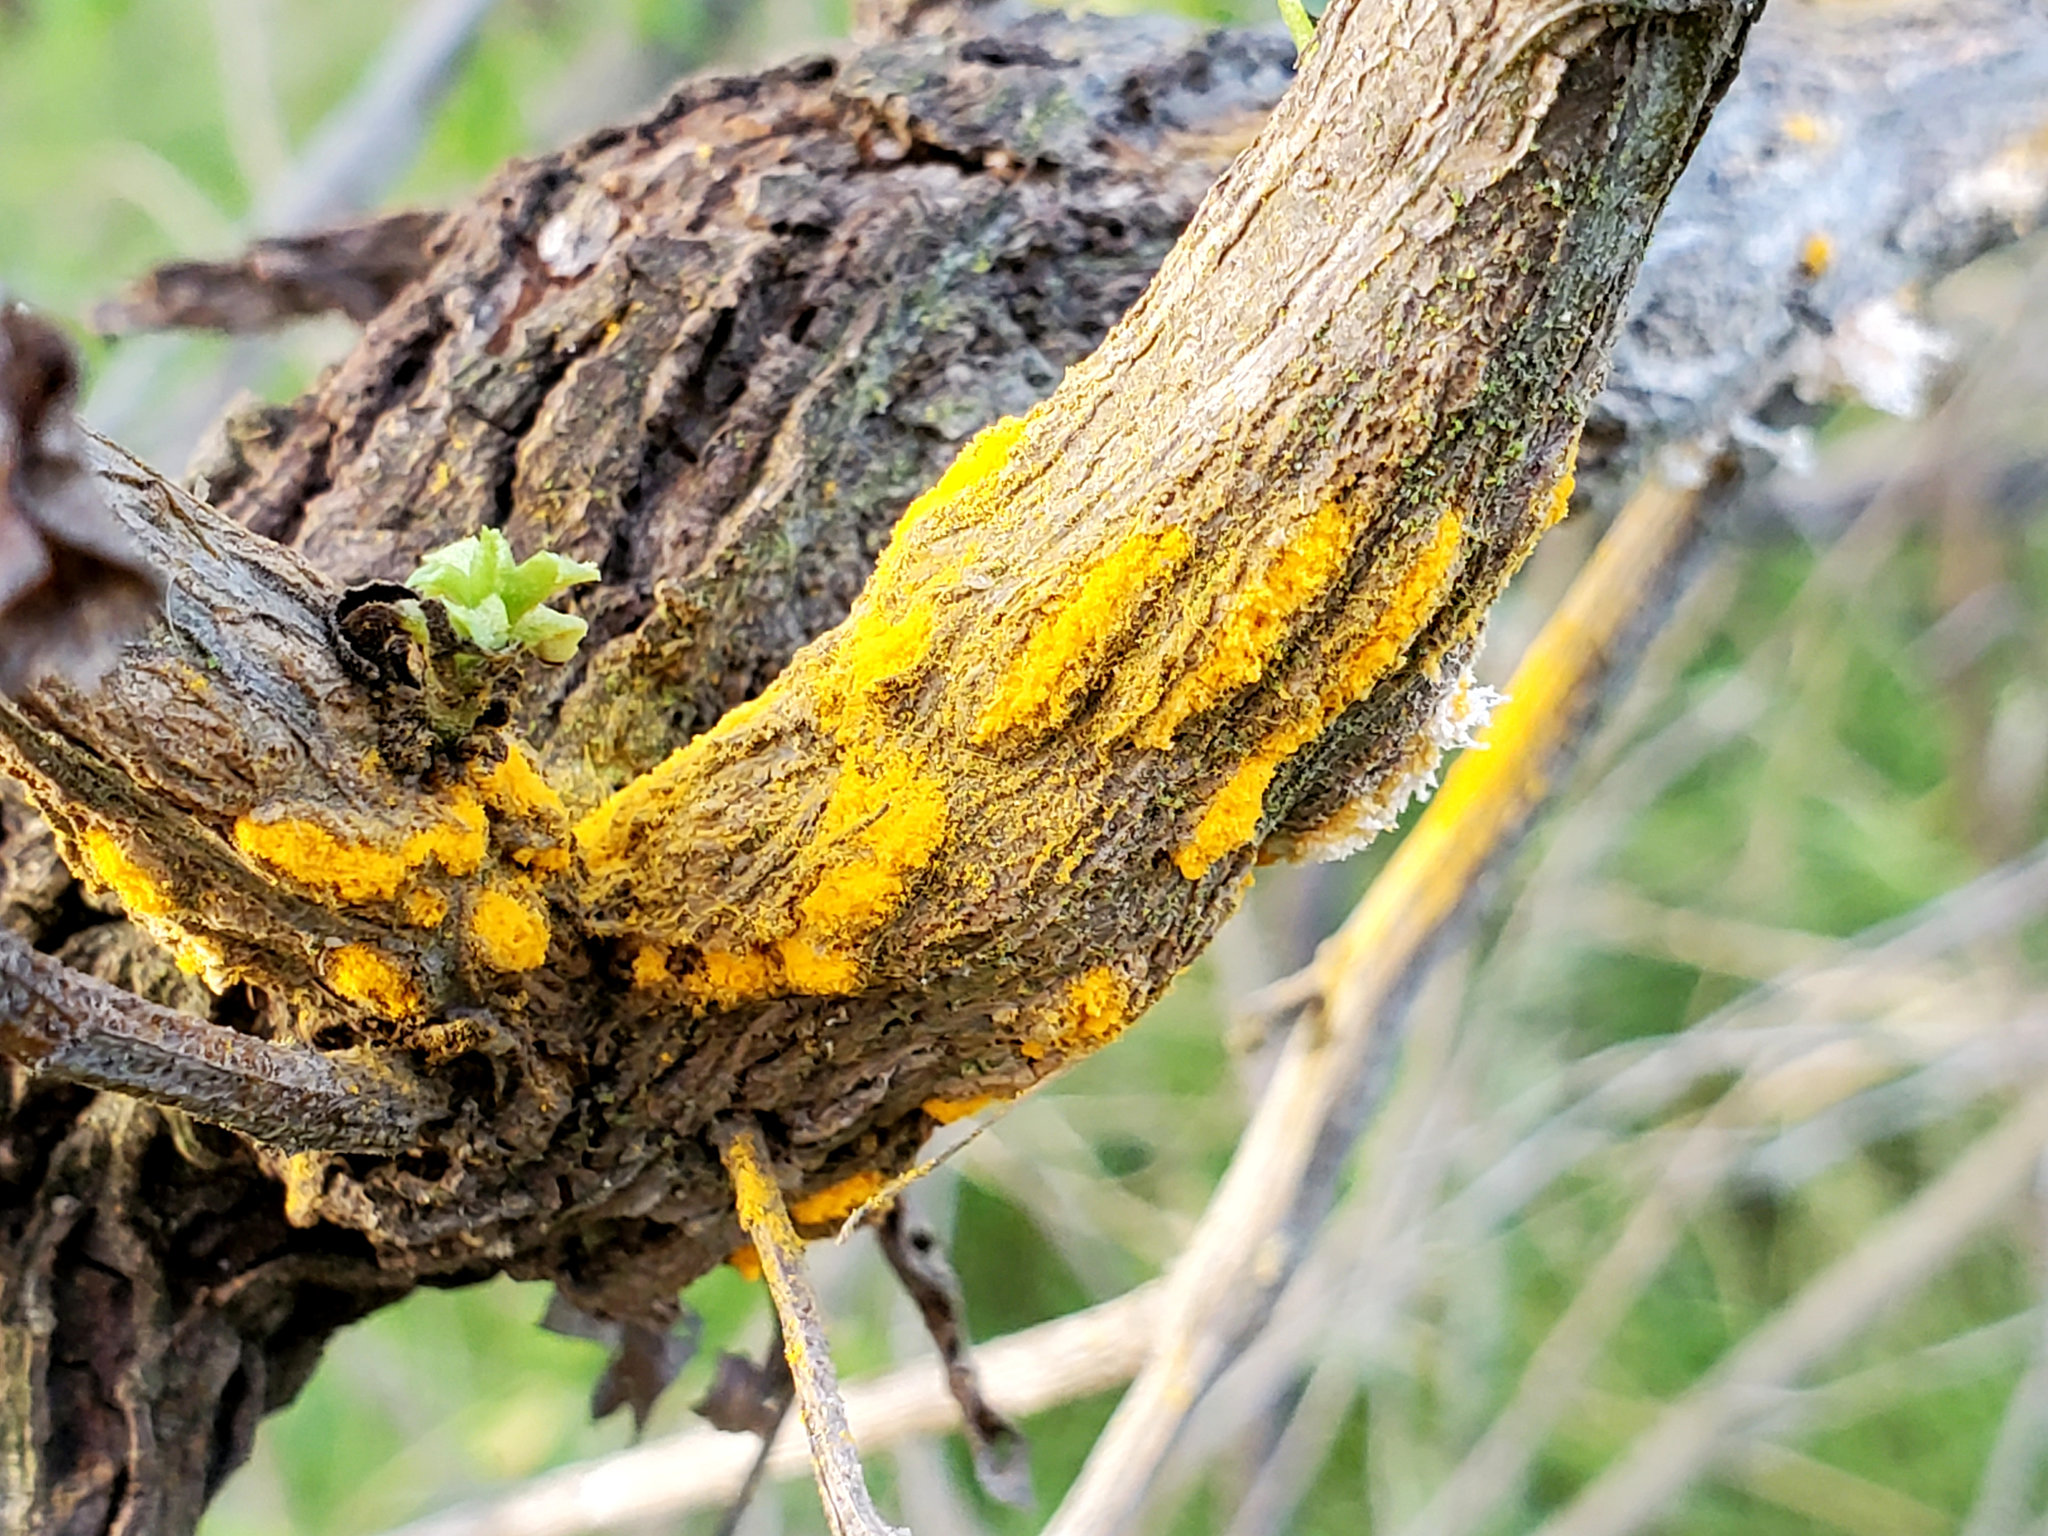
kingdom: Fungi
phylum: Basidiomycota
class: Pucciniomycetes
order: Pucciniales
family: Pucciniaceae
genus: Eriosporangium
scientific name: Eriosporangium evadens
